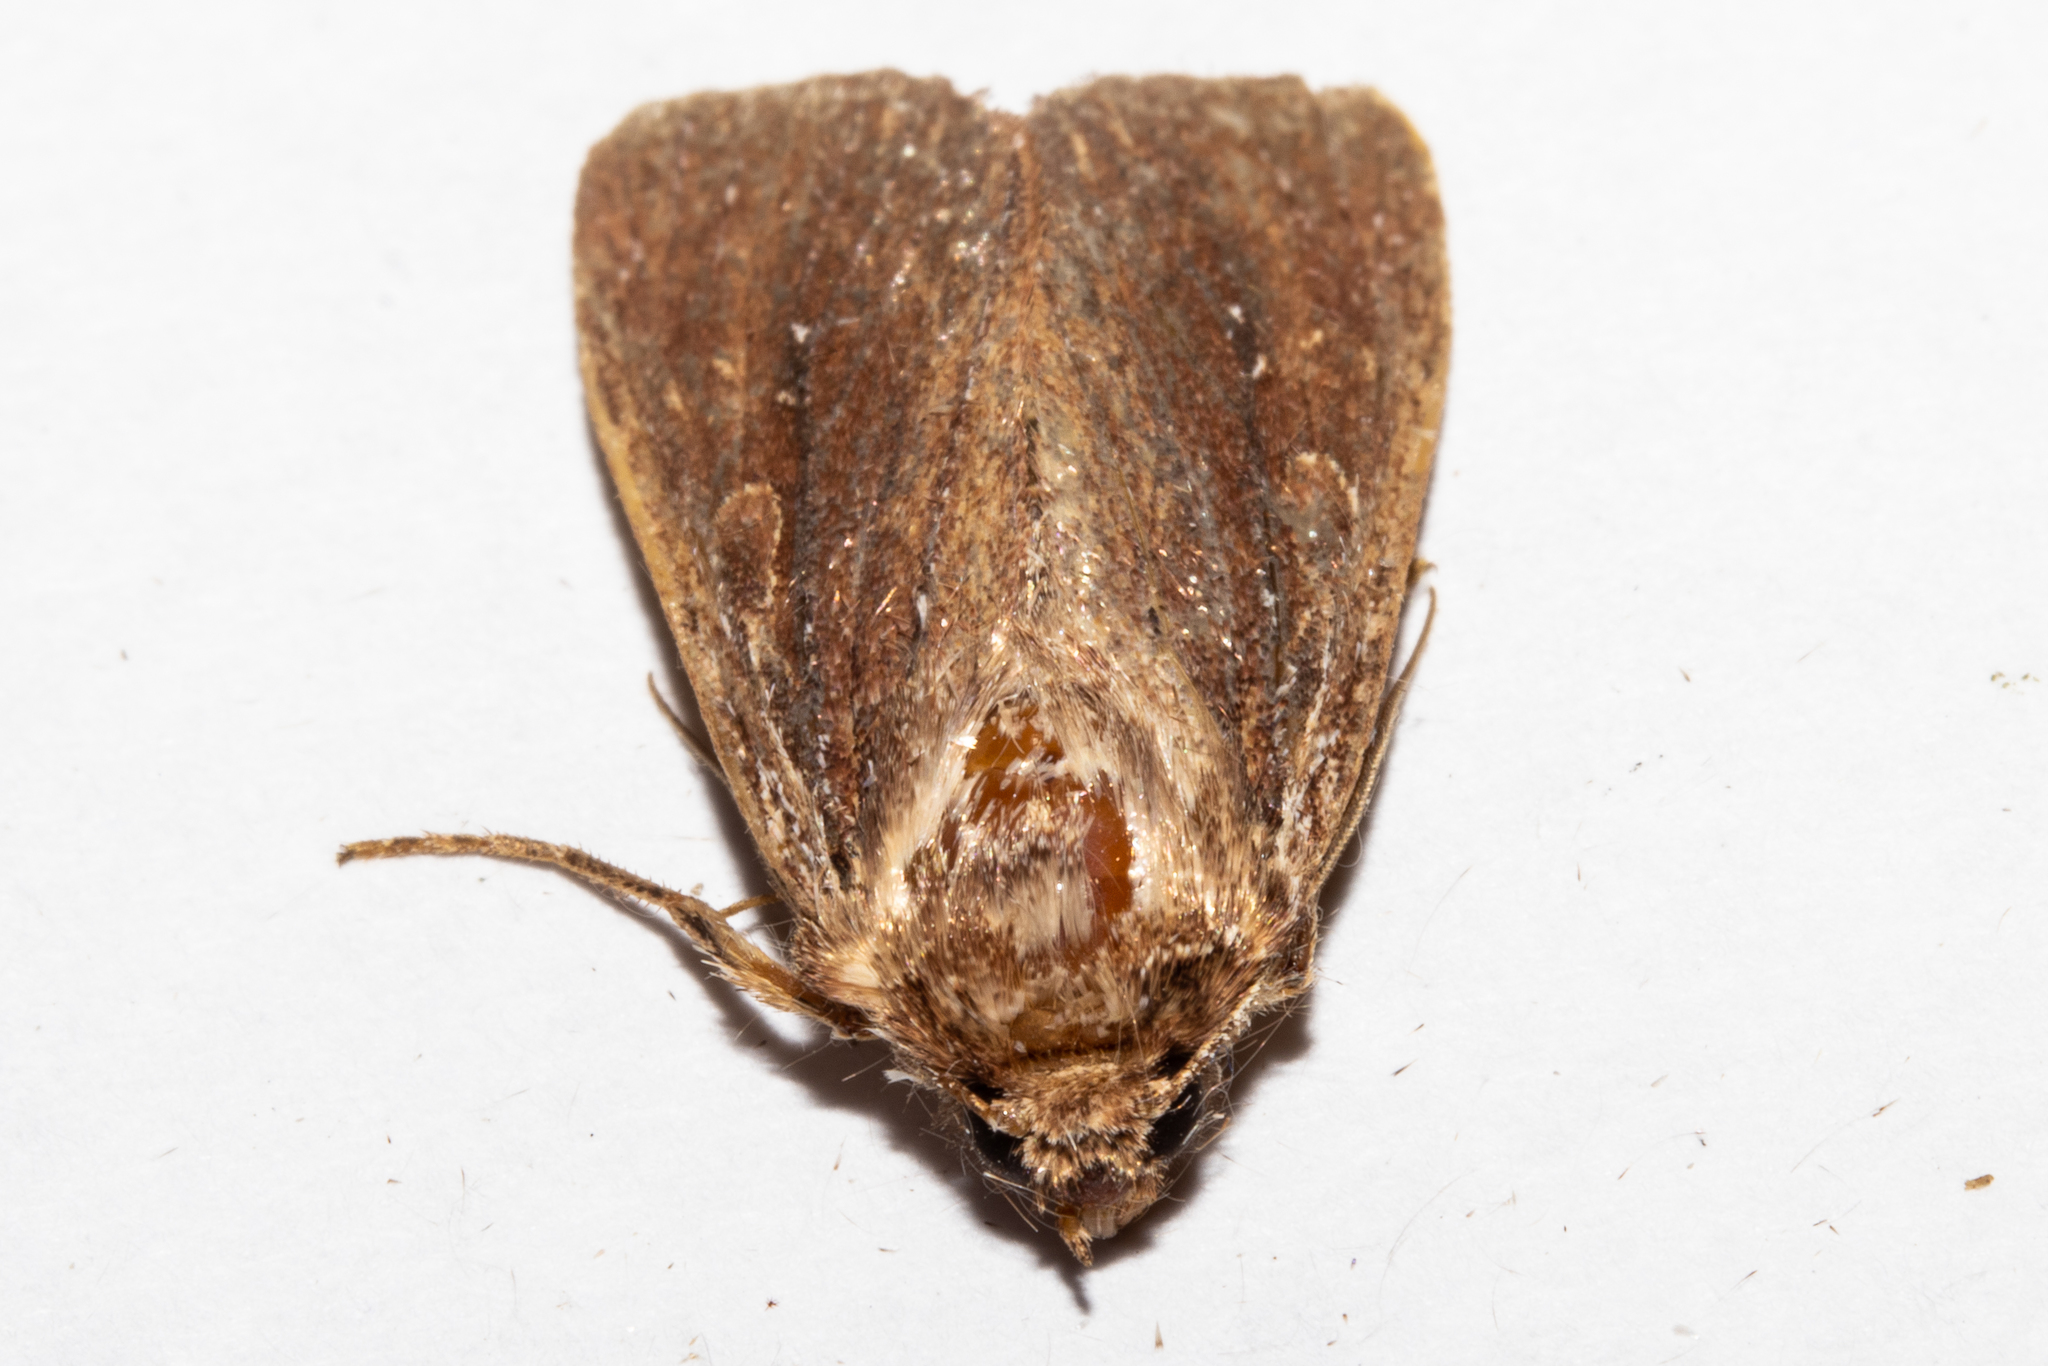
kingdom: Animalia
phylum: Arthropoda
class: Insecta
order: Lepidoptera
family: Noctuidae
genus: Ichneutica
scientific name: Ichneutica
